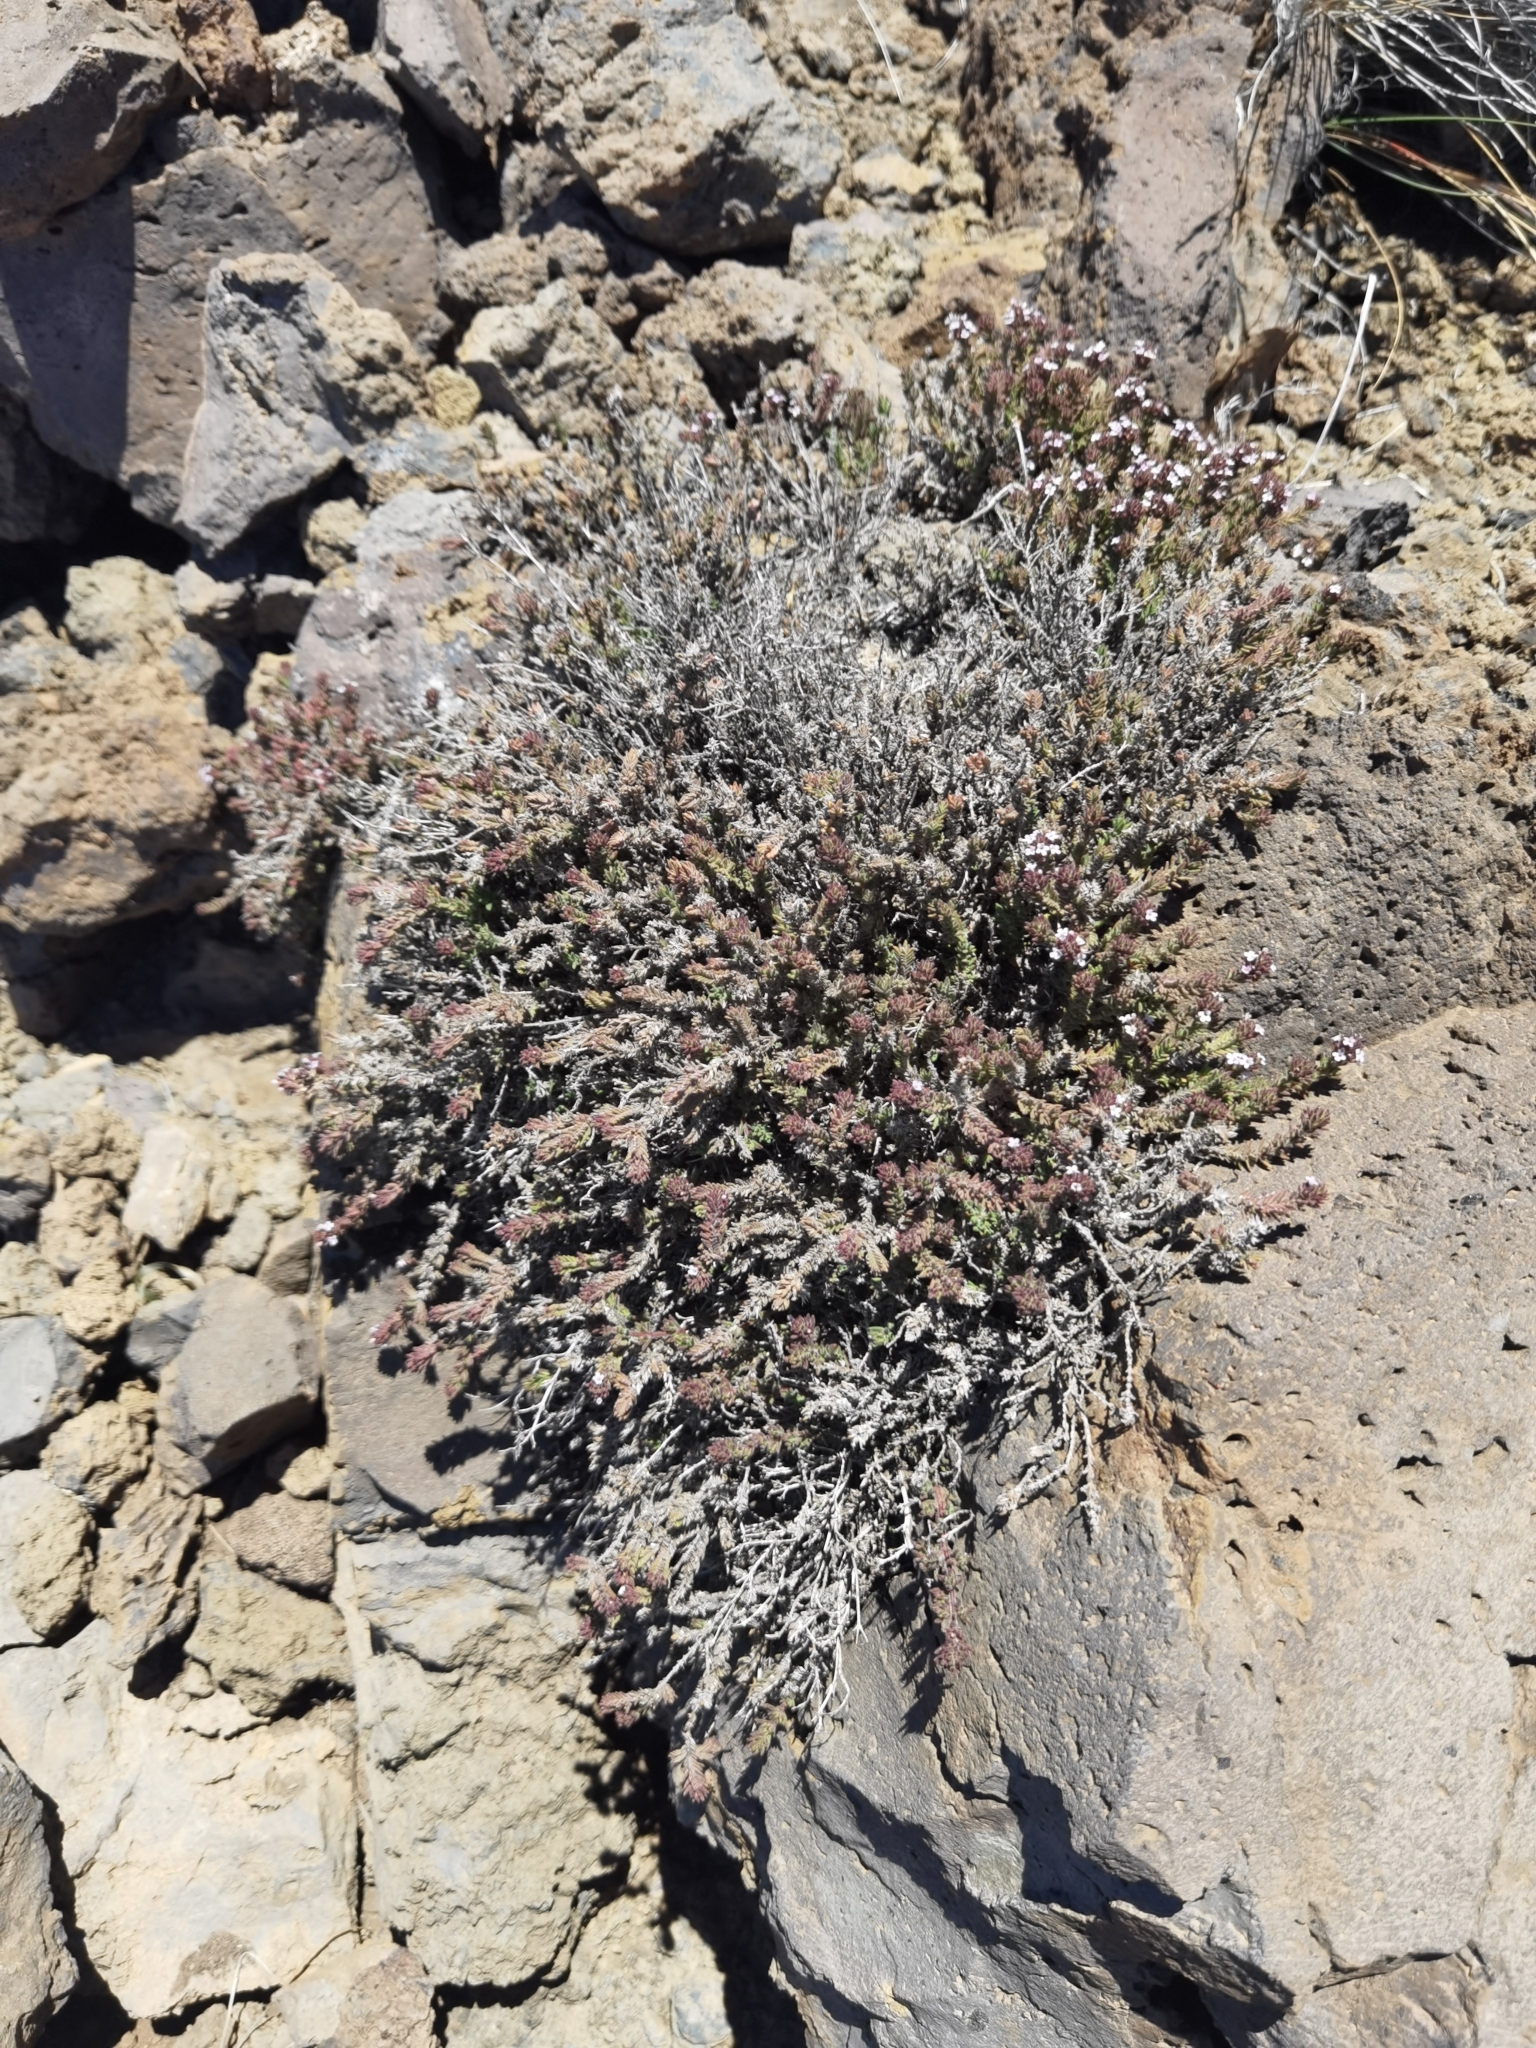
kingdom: Plantae
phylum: Tracheophyta
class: Magnoliopsida
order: Lamiales
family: Lamiaceae
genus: Micromeria
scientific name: Micromeria herpyllomorpha
